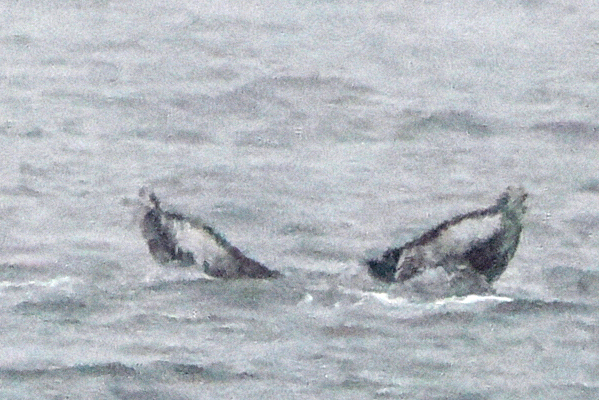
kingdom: Animalia
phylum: Chordata
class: Mammalia
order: Cetacea
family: Balaenopteridae
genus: Megaptera
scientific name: Megaptera novaeangliae
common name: Humpback whale
